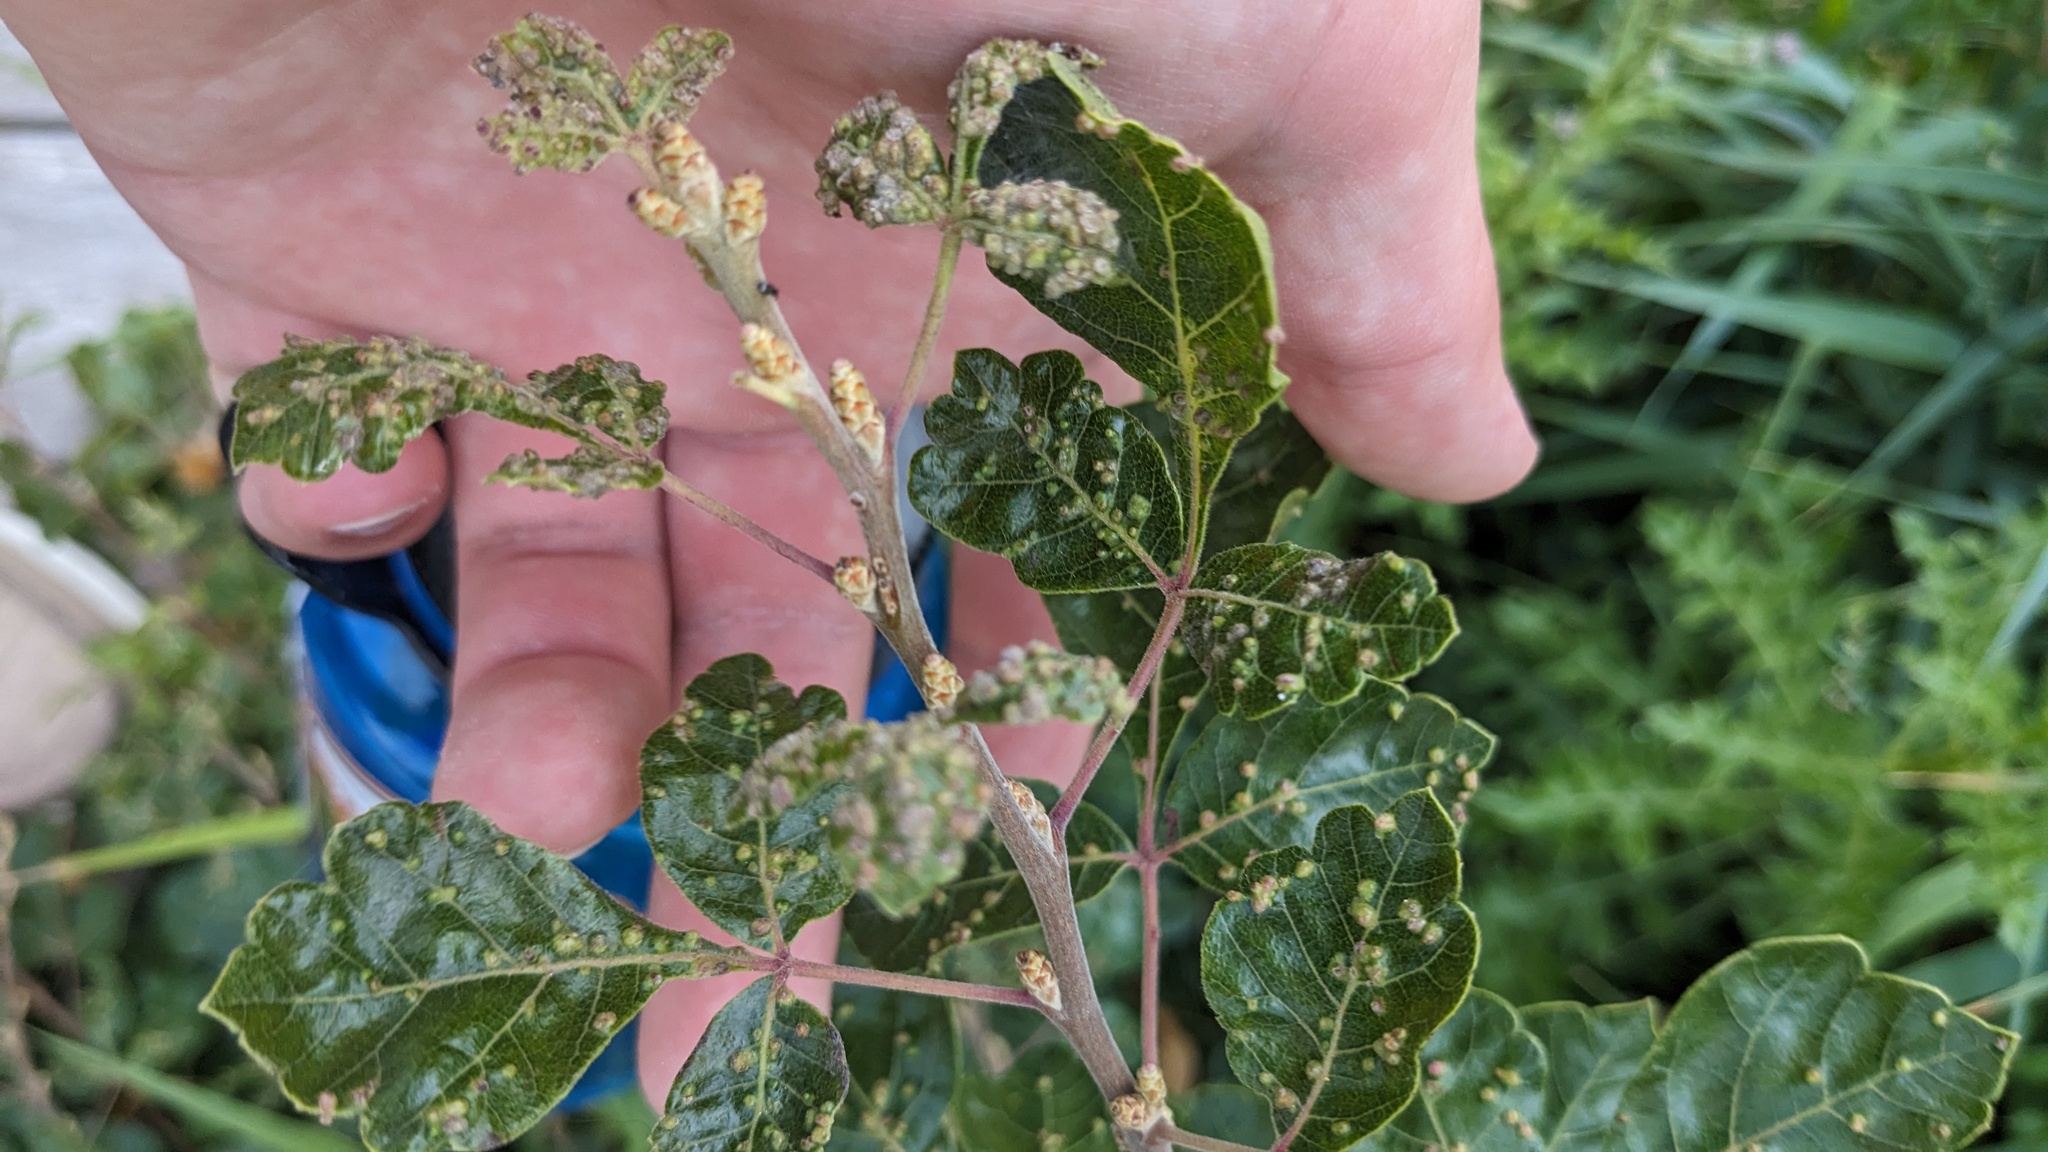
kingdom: Animalia
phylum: Arthropoda
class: Arachnida
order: Trombidiformes
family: Eriophyidae
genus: Aculops
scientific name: Aculops
